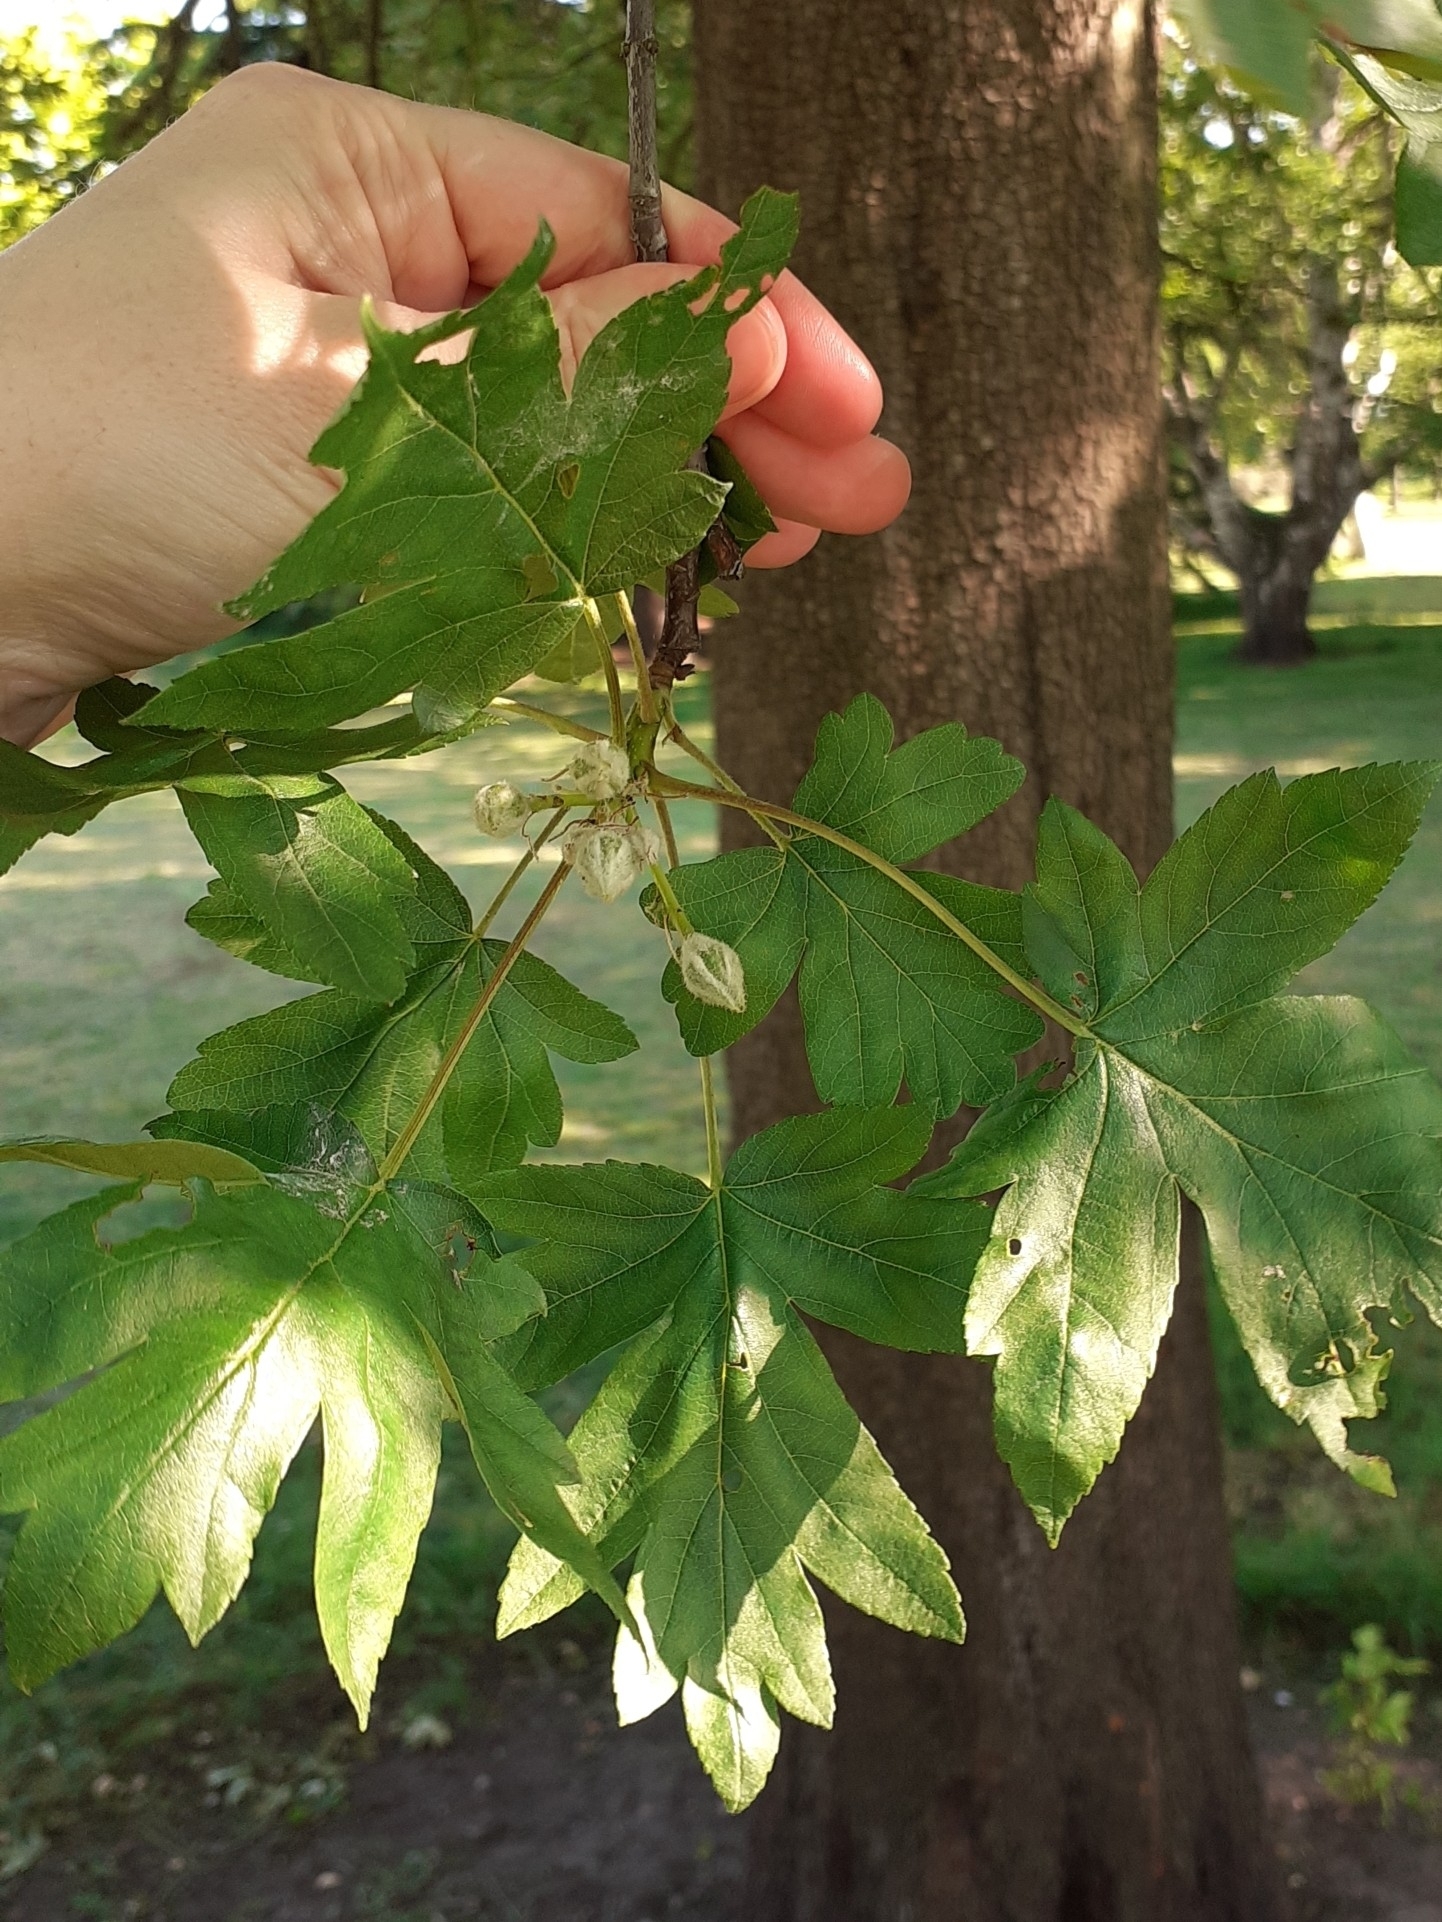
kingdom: Plantae
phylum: Tracheophyta
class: Magnoliopsida
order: Rosales
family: Rosaceae
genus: Torminalis
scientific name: Torminalis glaberrima
